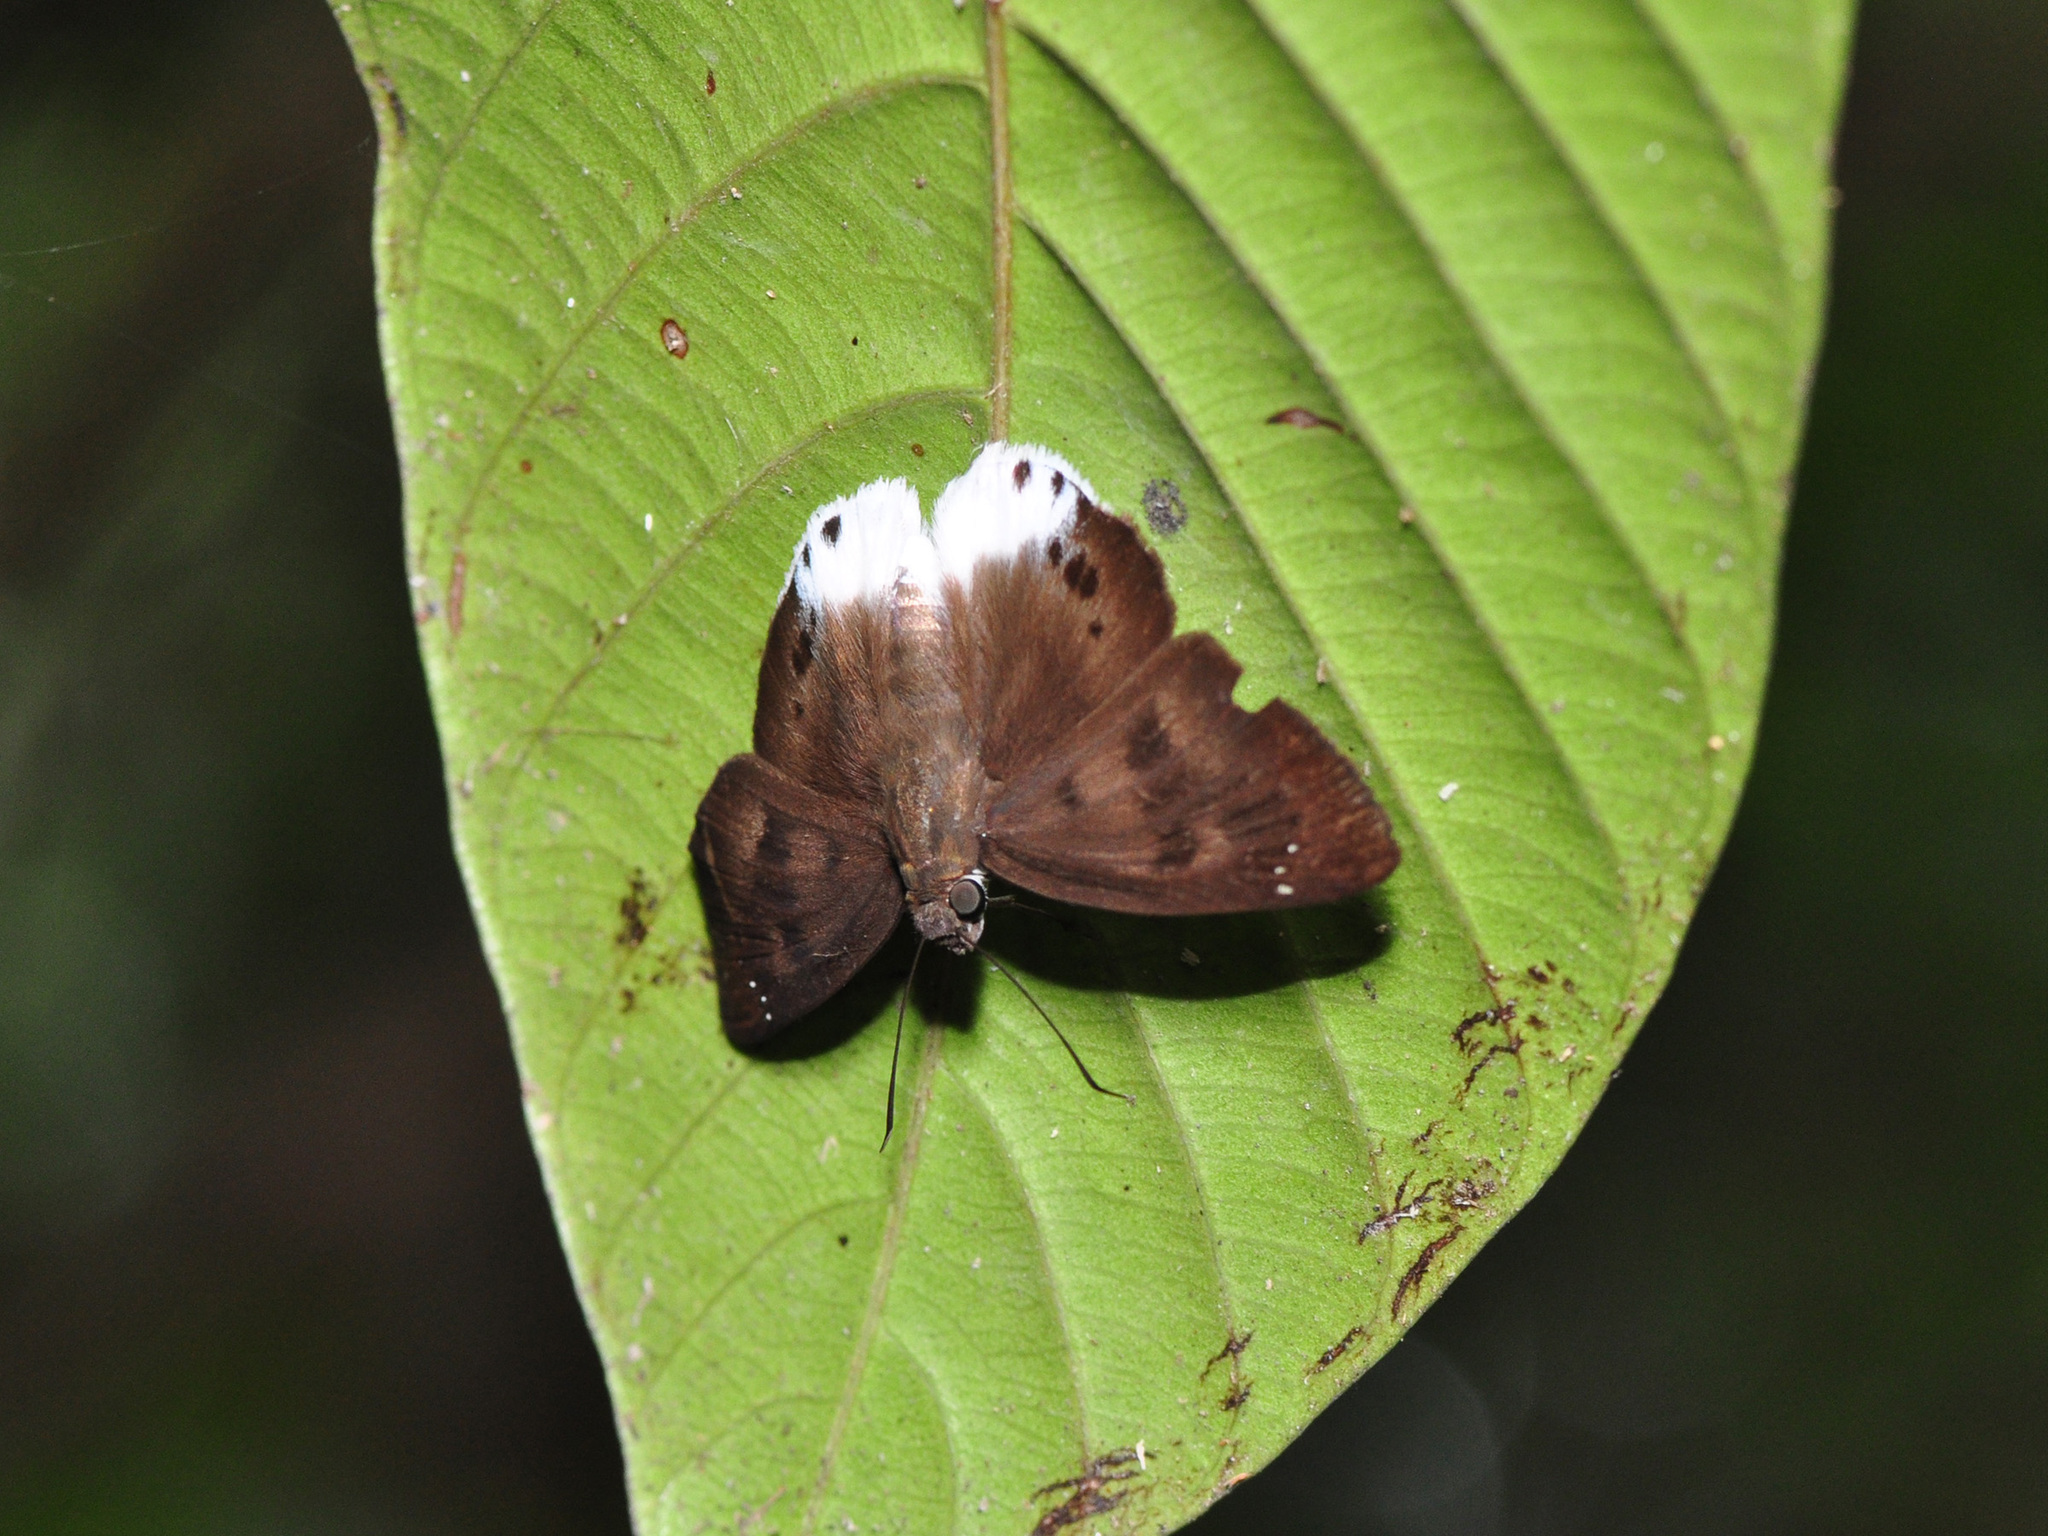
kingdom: Animalia
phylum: Arthropoda
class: Insecta
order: Lepidoptera
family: Hesperiidae
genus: Tagiades
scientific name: Tagiades gana
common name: Suffused snow flat
